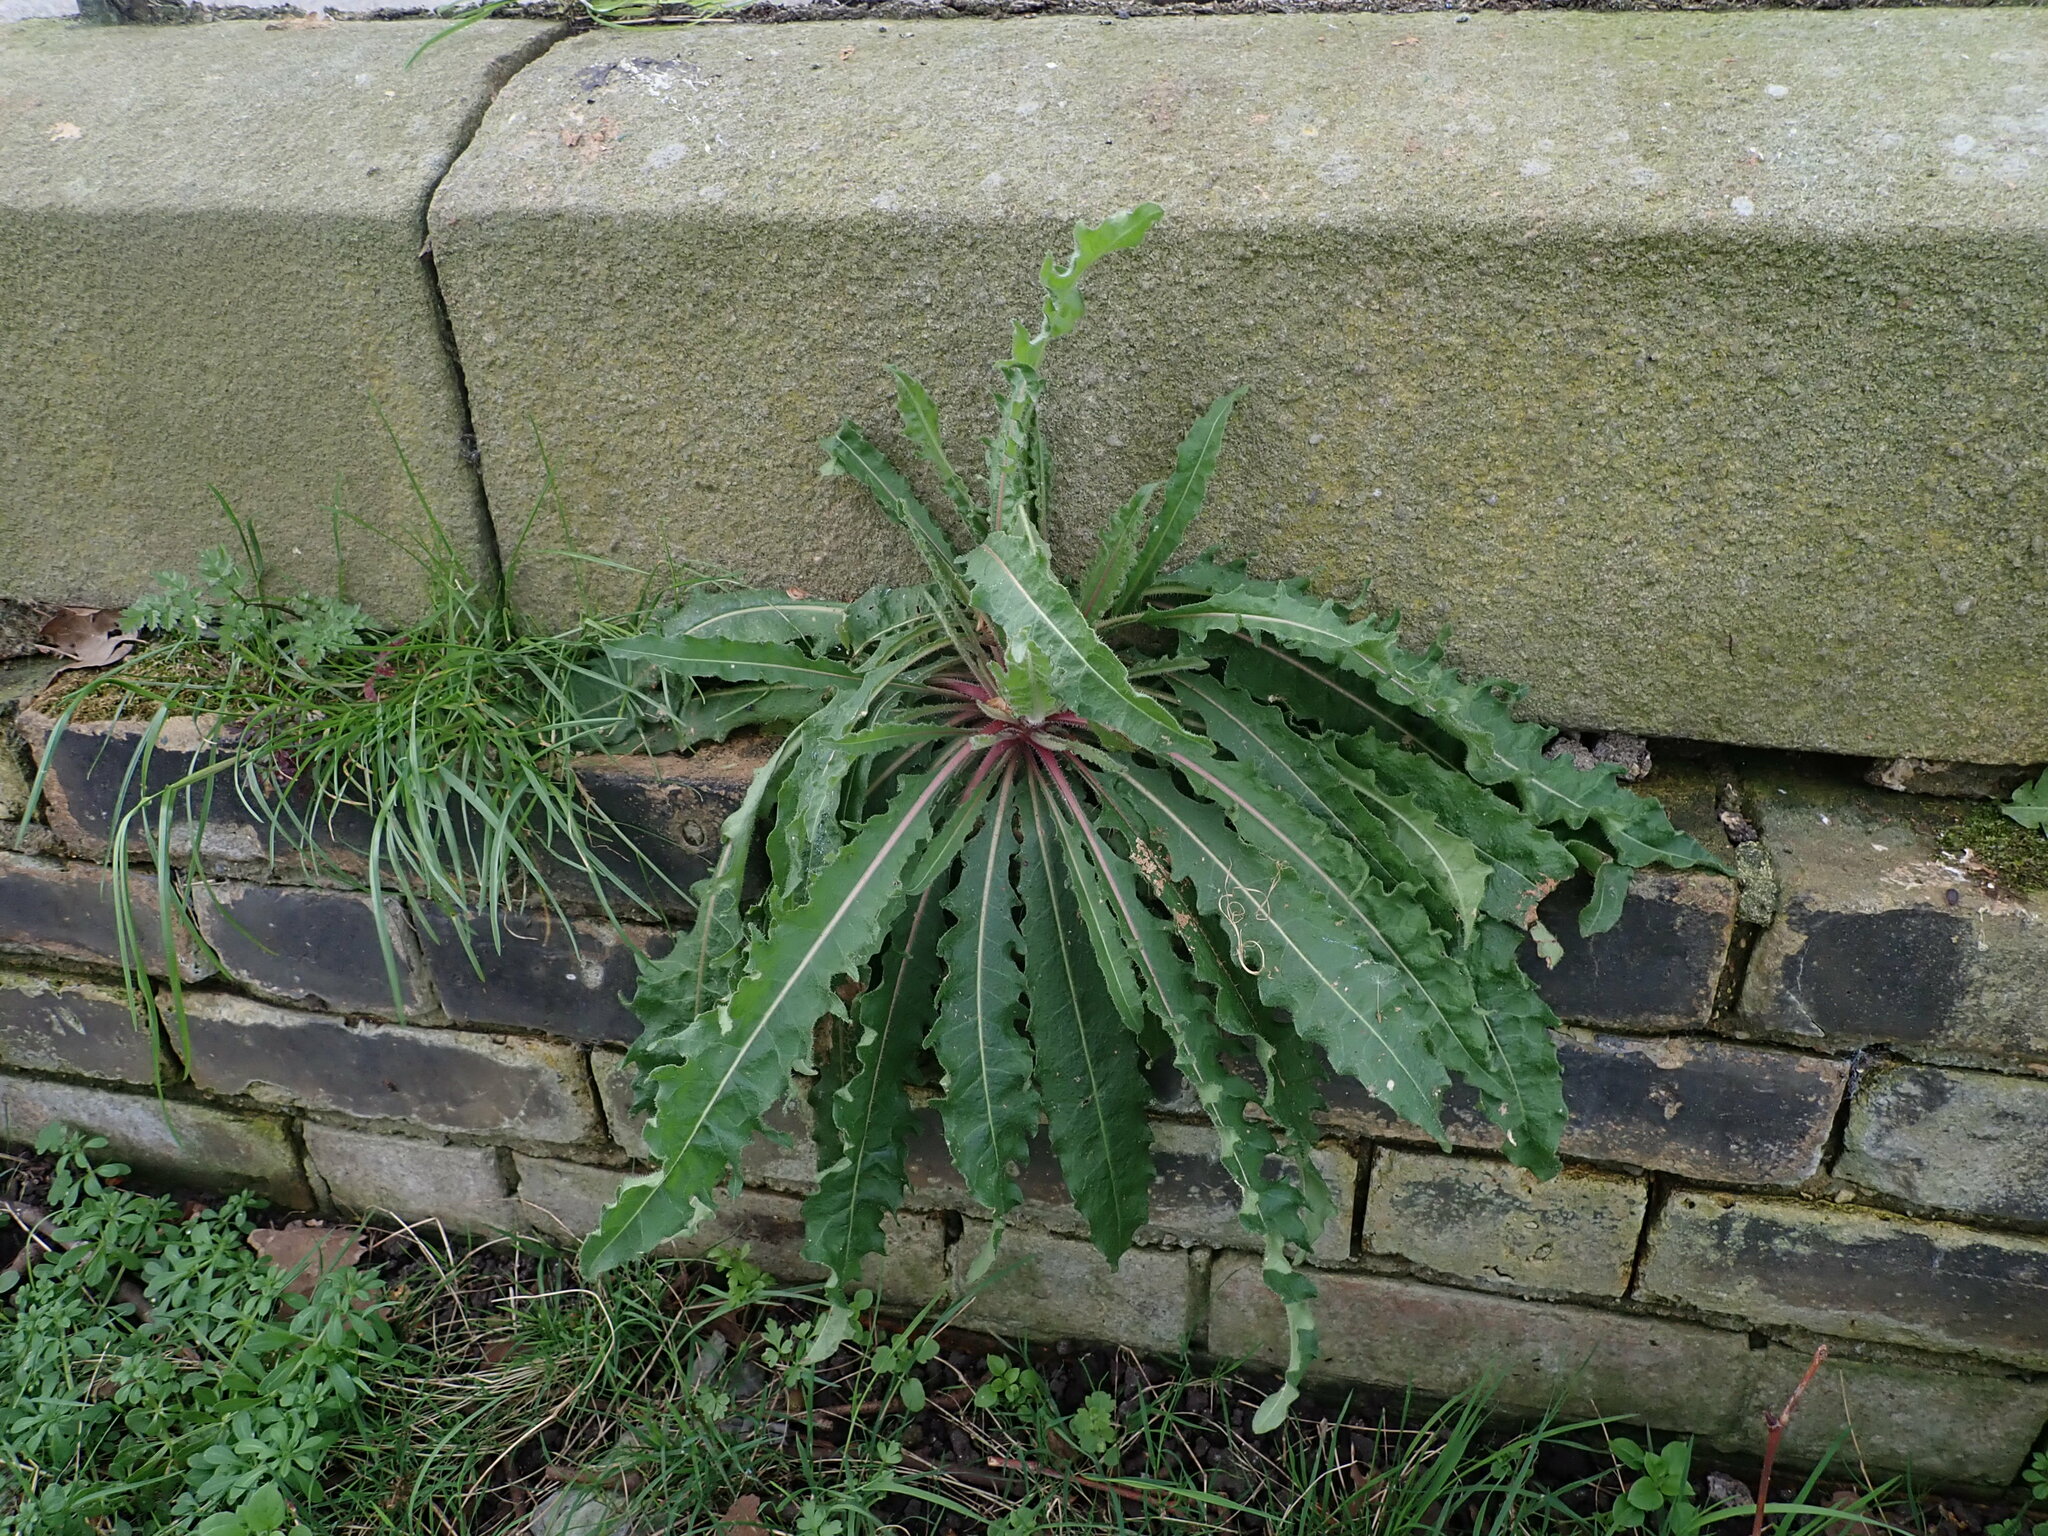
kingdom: Plantae
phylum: Tracheophyta
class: Magnoliopsida
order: Asterales
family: Asteraceae
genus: Picris
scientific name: Picris hieracioides
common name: Hawkweed oxtongue
